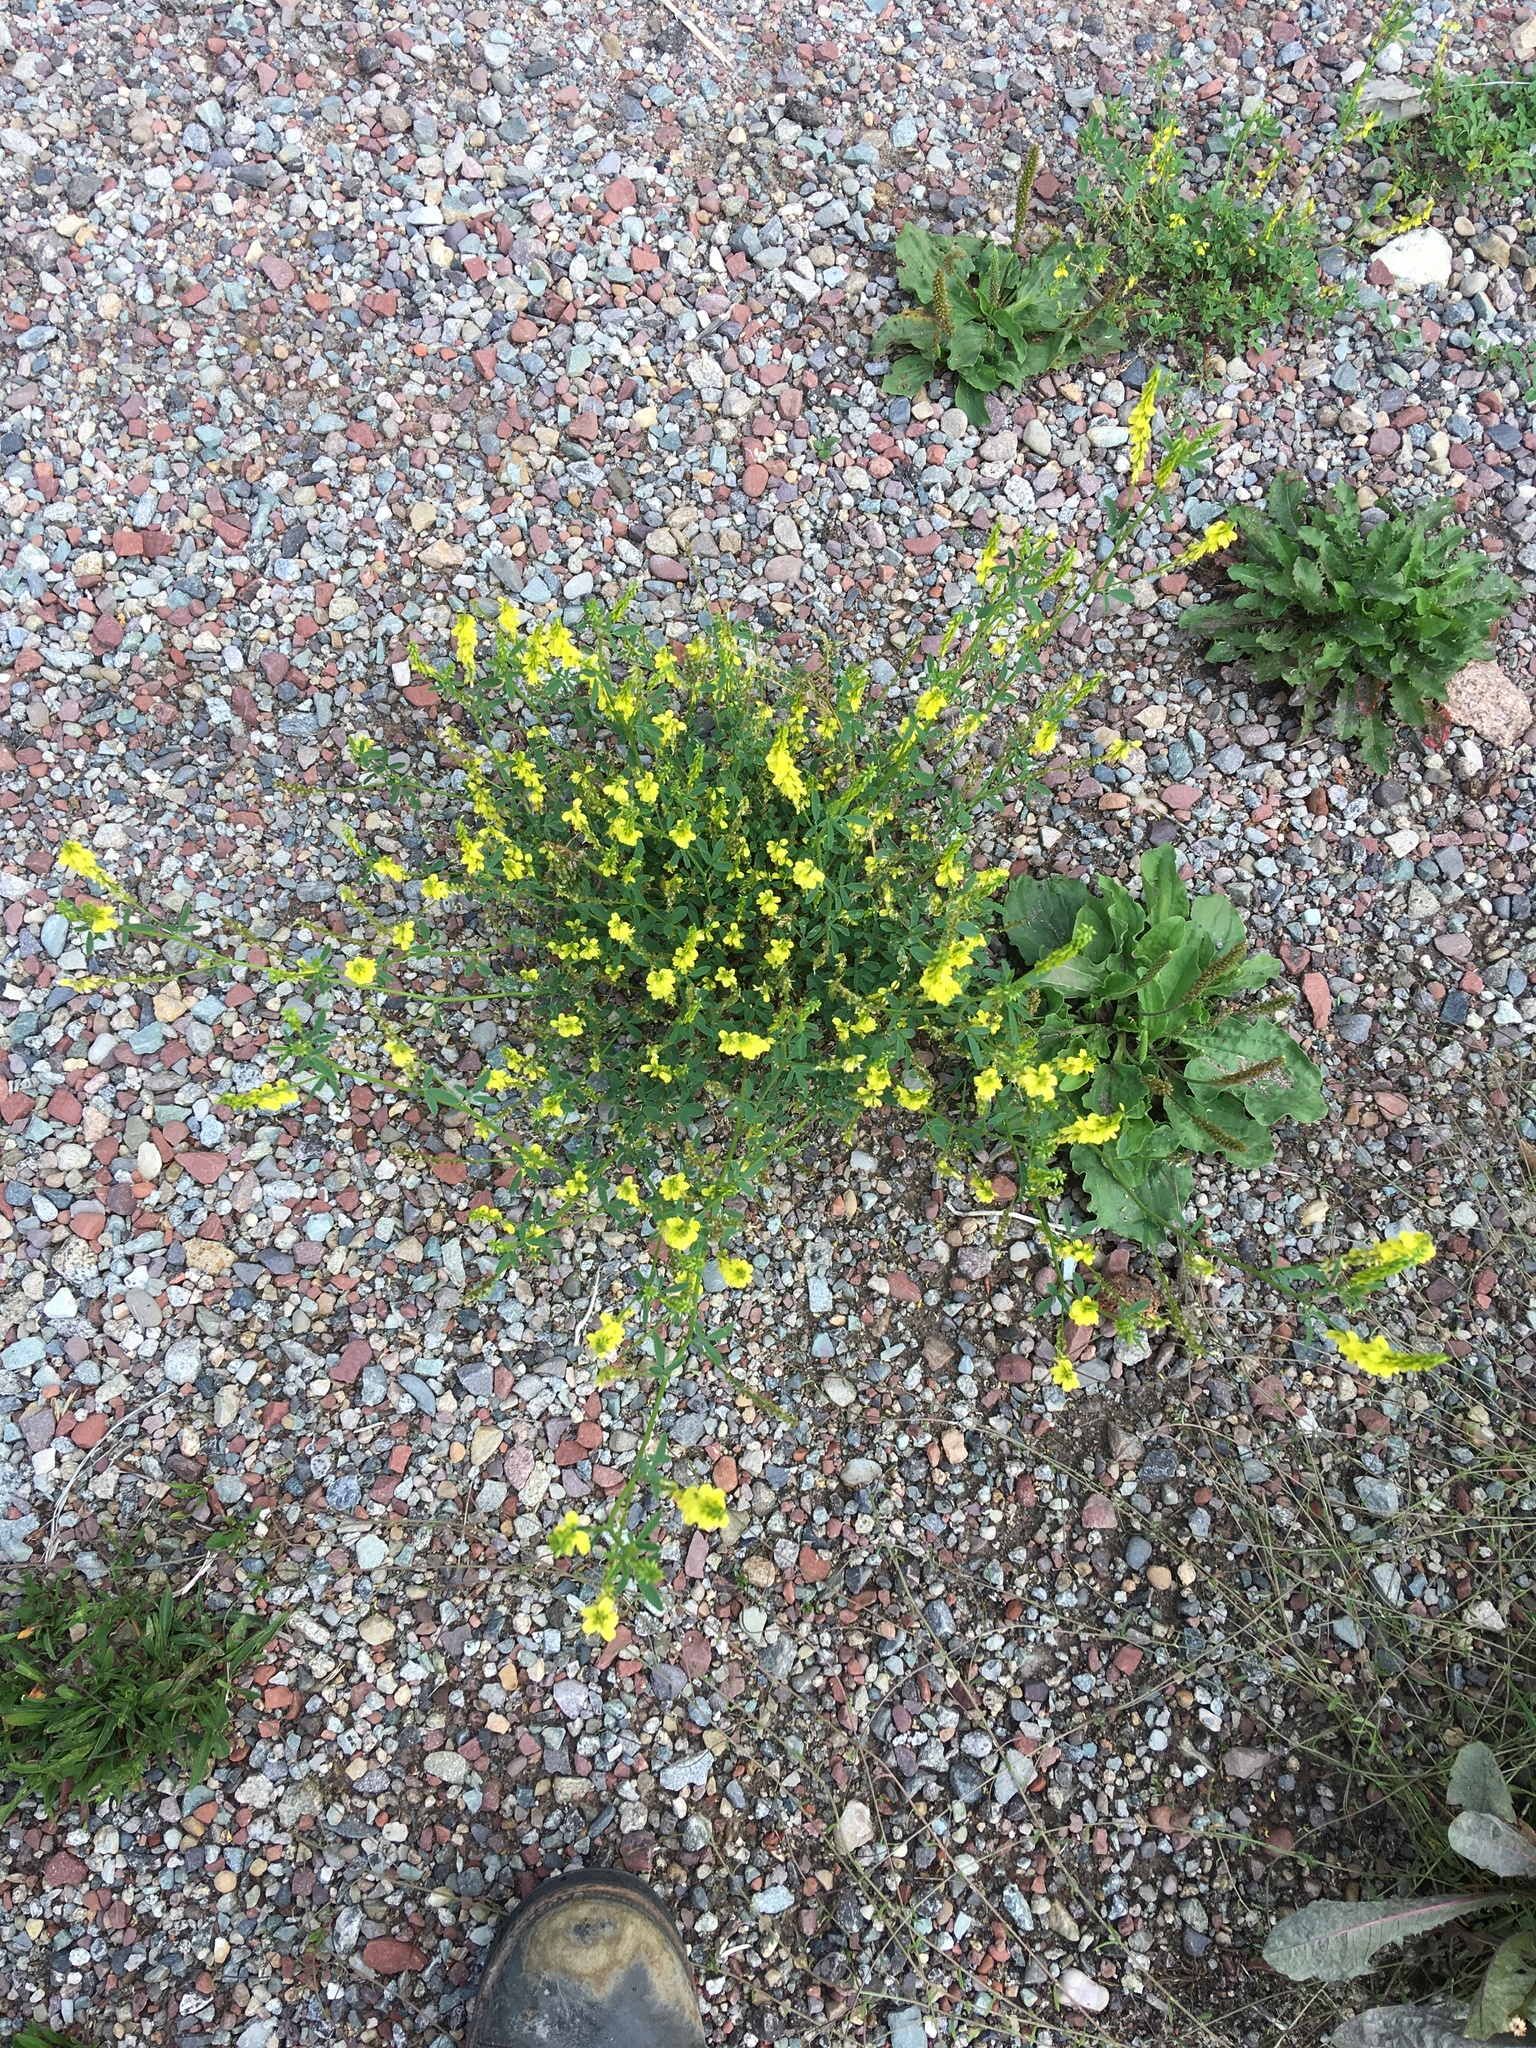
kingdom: Plantae
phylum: Tracheophyta
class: Magnoliopsida
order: Fabales
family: Fabaceae
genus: Melilotus
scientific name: Melilotus officinalis
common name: Sweetclover
